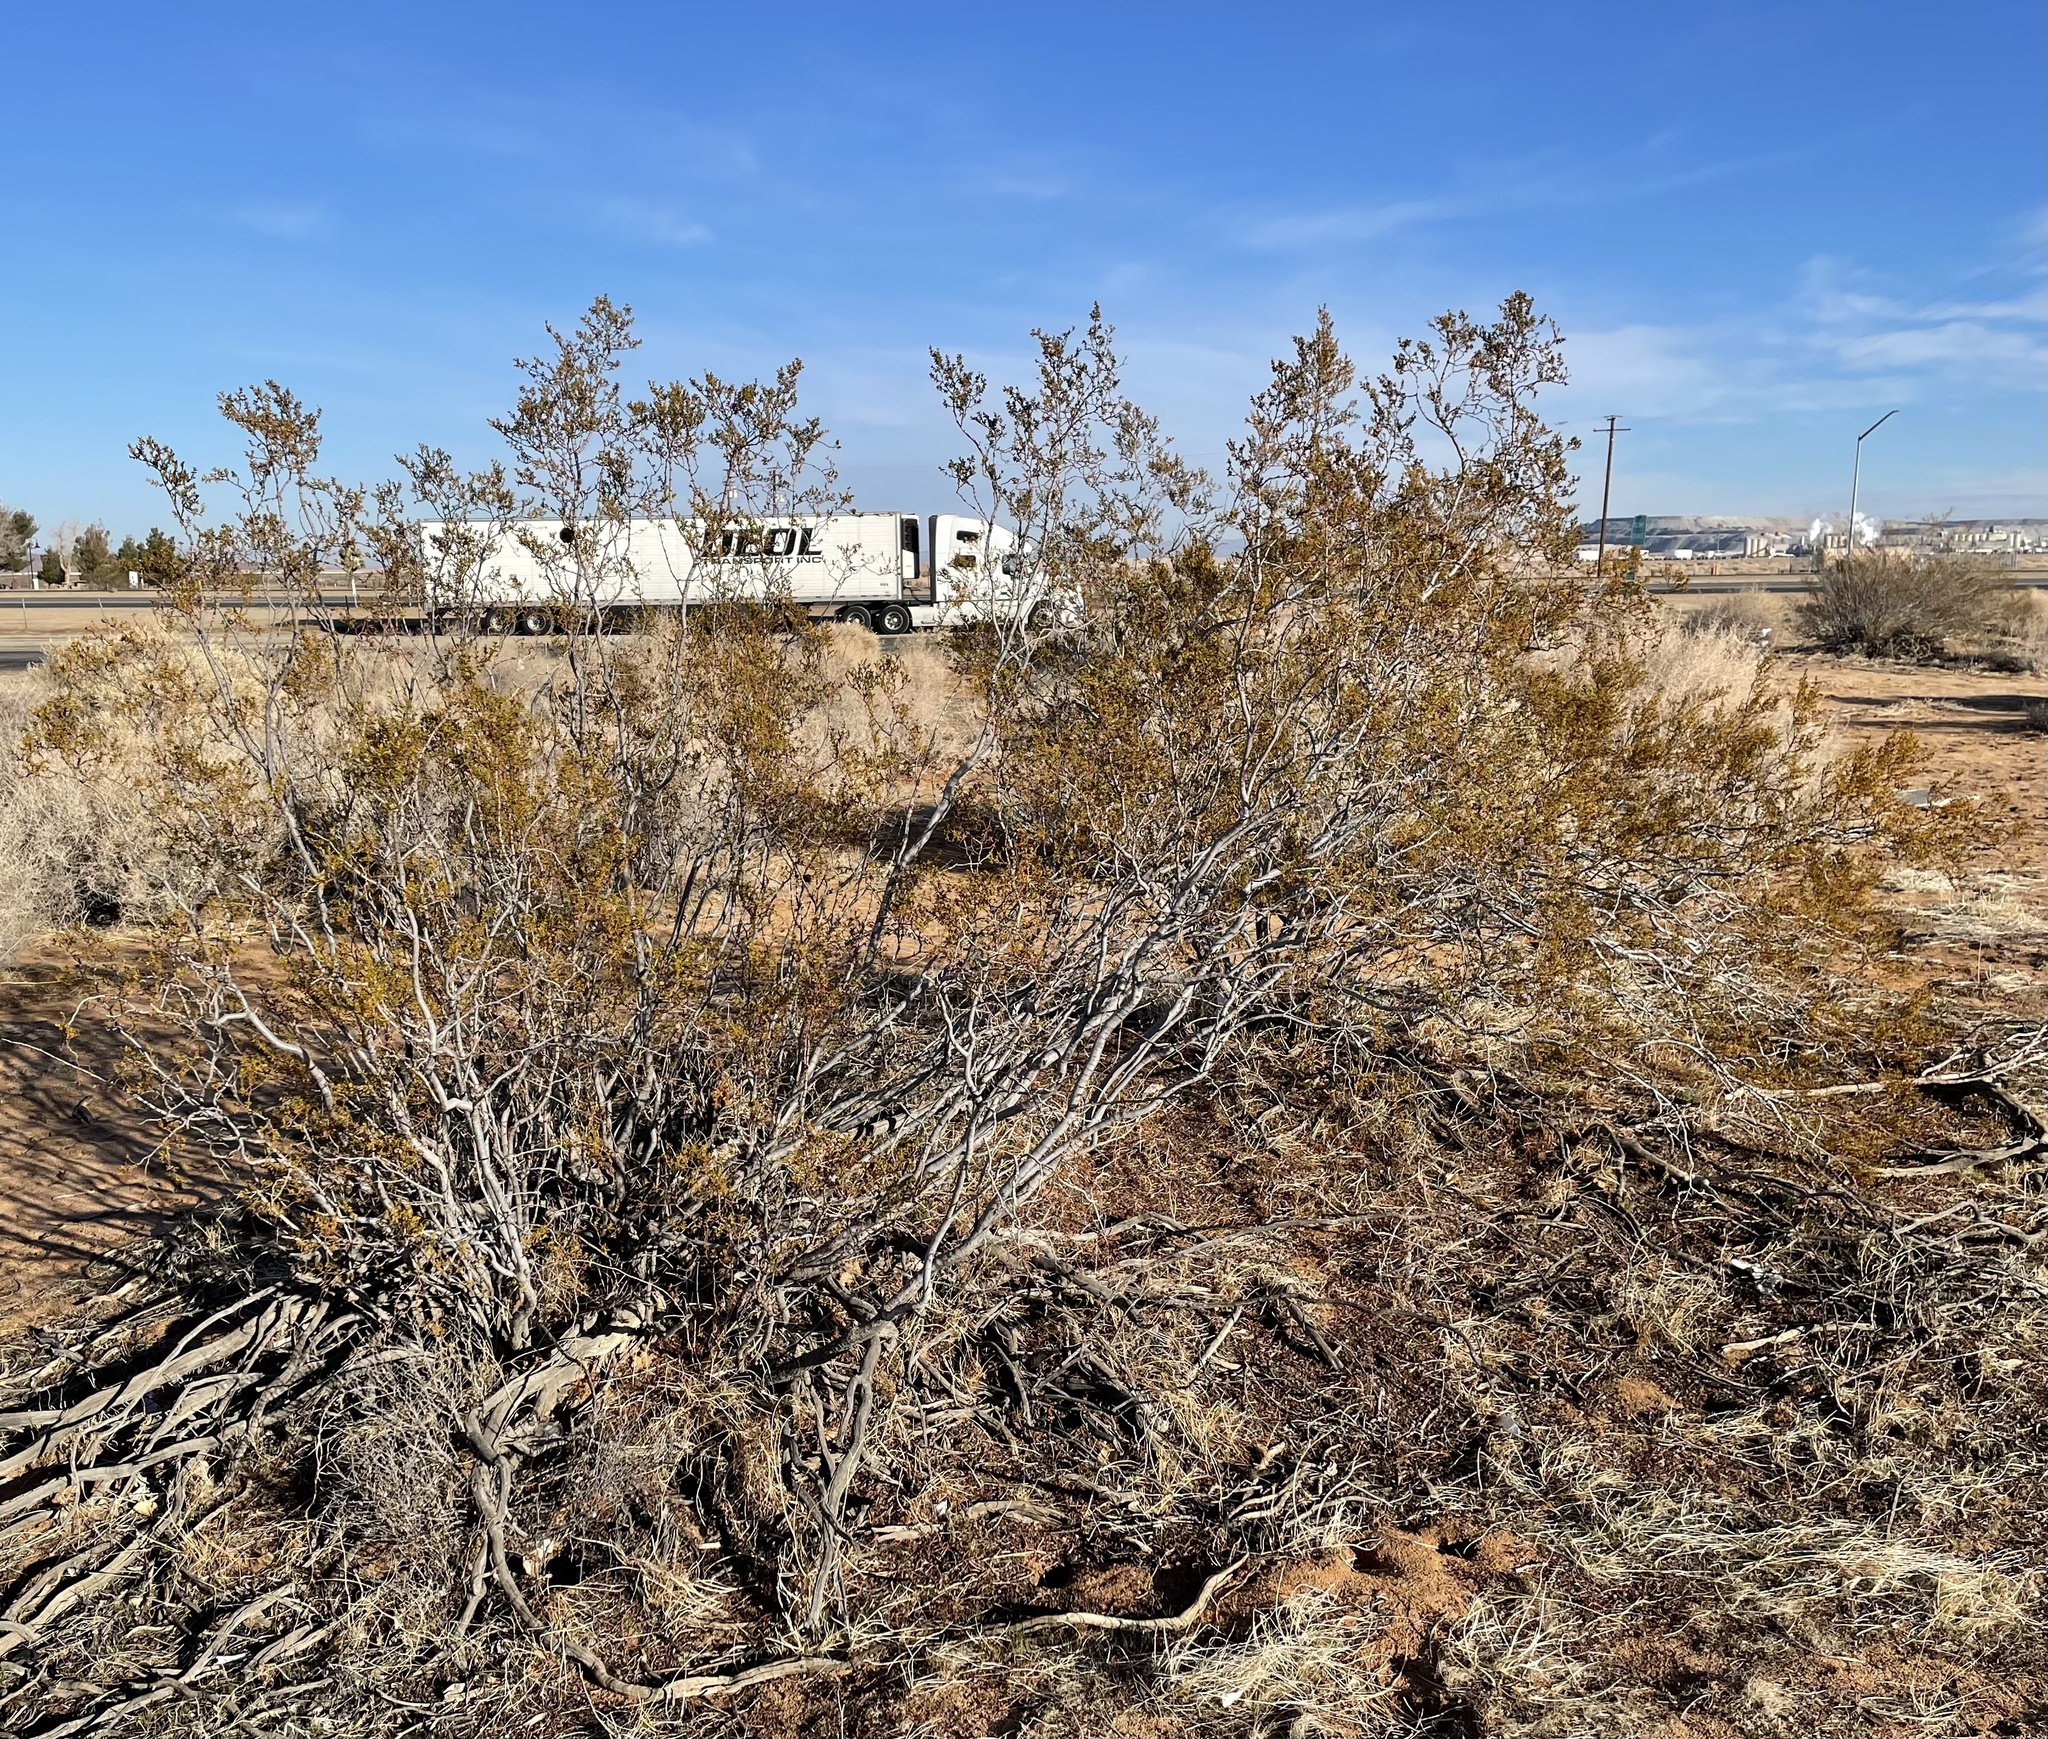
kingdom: Animalia
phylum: Arthropoda
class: Insecta
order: Diptera
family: Cecidomyiidae
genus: Asphondylia
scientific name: Asphondylia auripila
